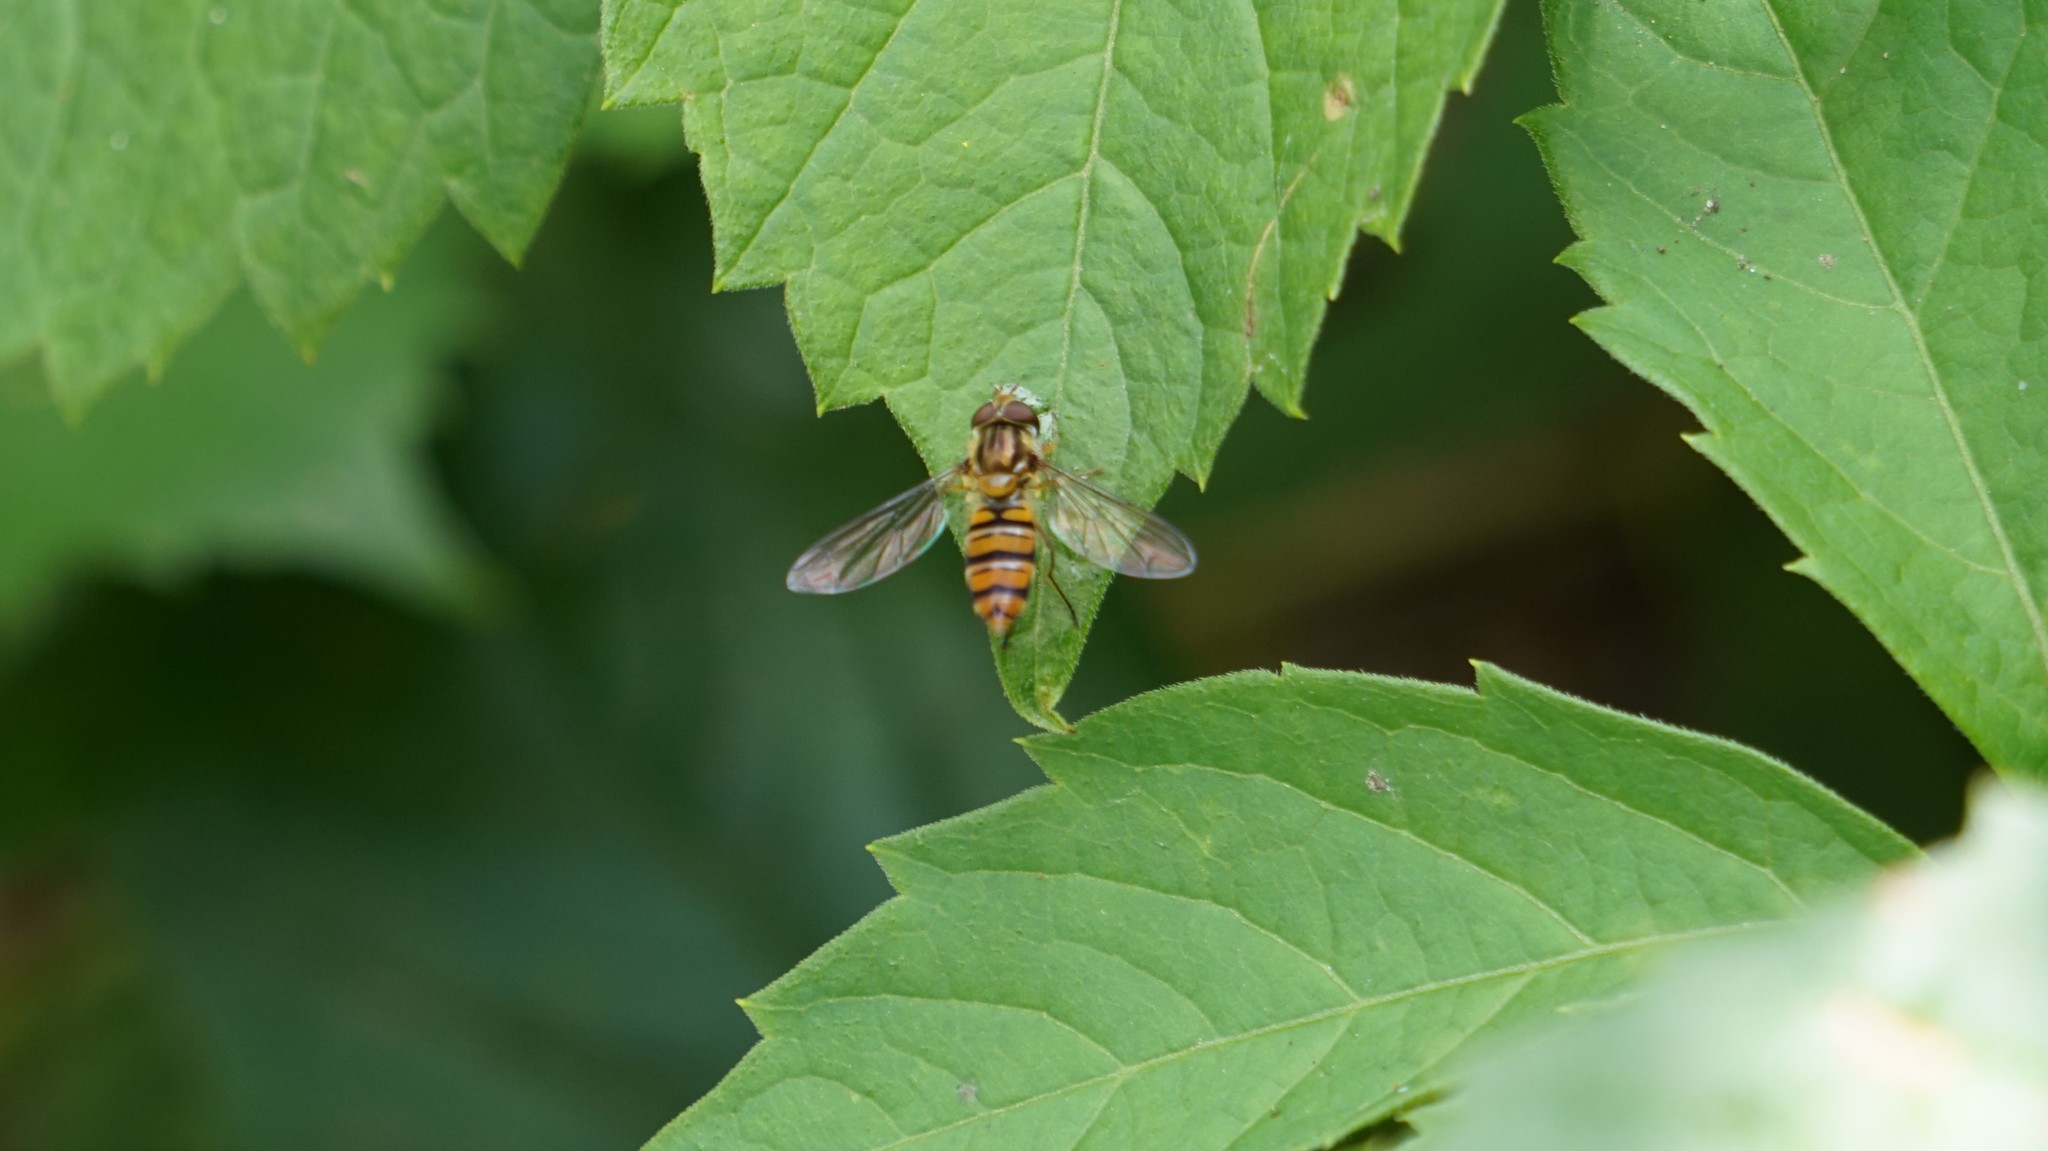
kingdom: Animalia
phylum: Arthropoda
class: Insecta
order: Diptera
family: Syrphidae
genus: Episyrphus
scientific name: Episyrphus balteatus
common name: Marmalade hoverfly
